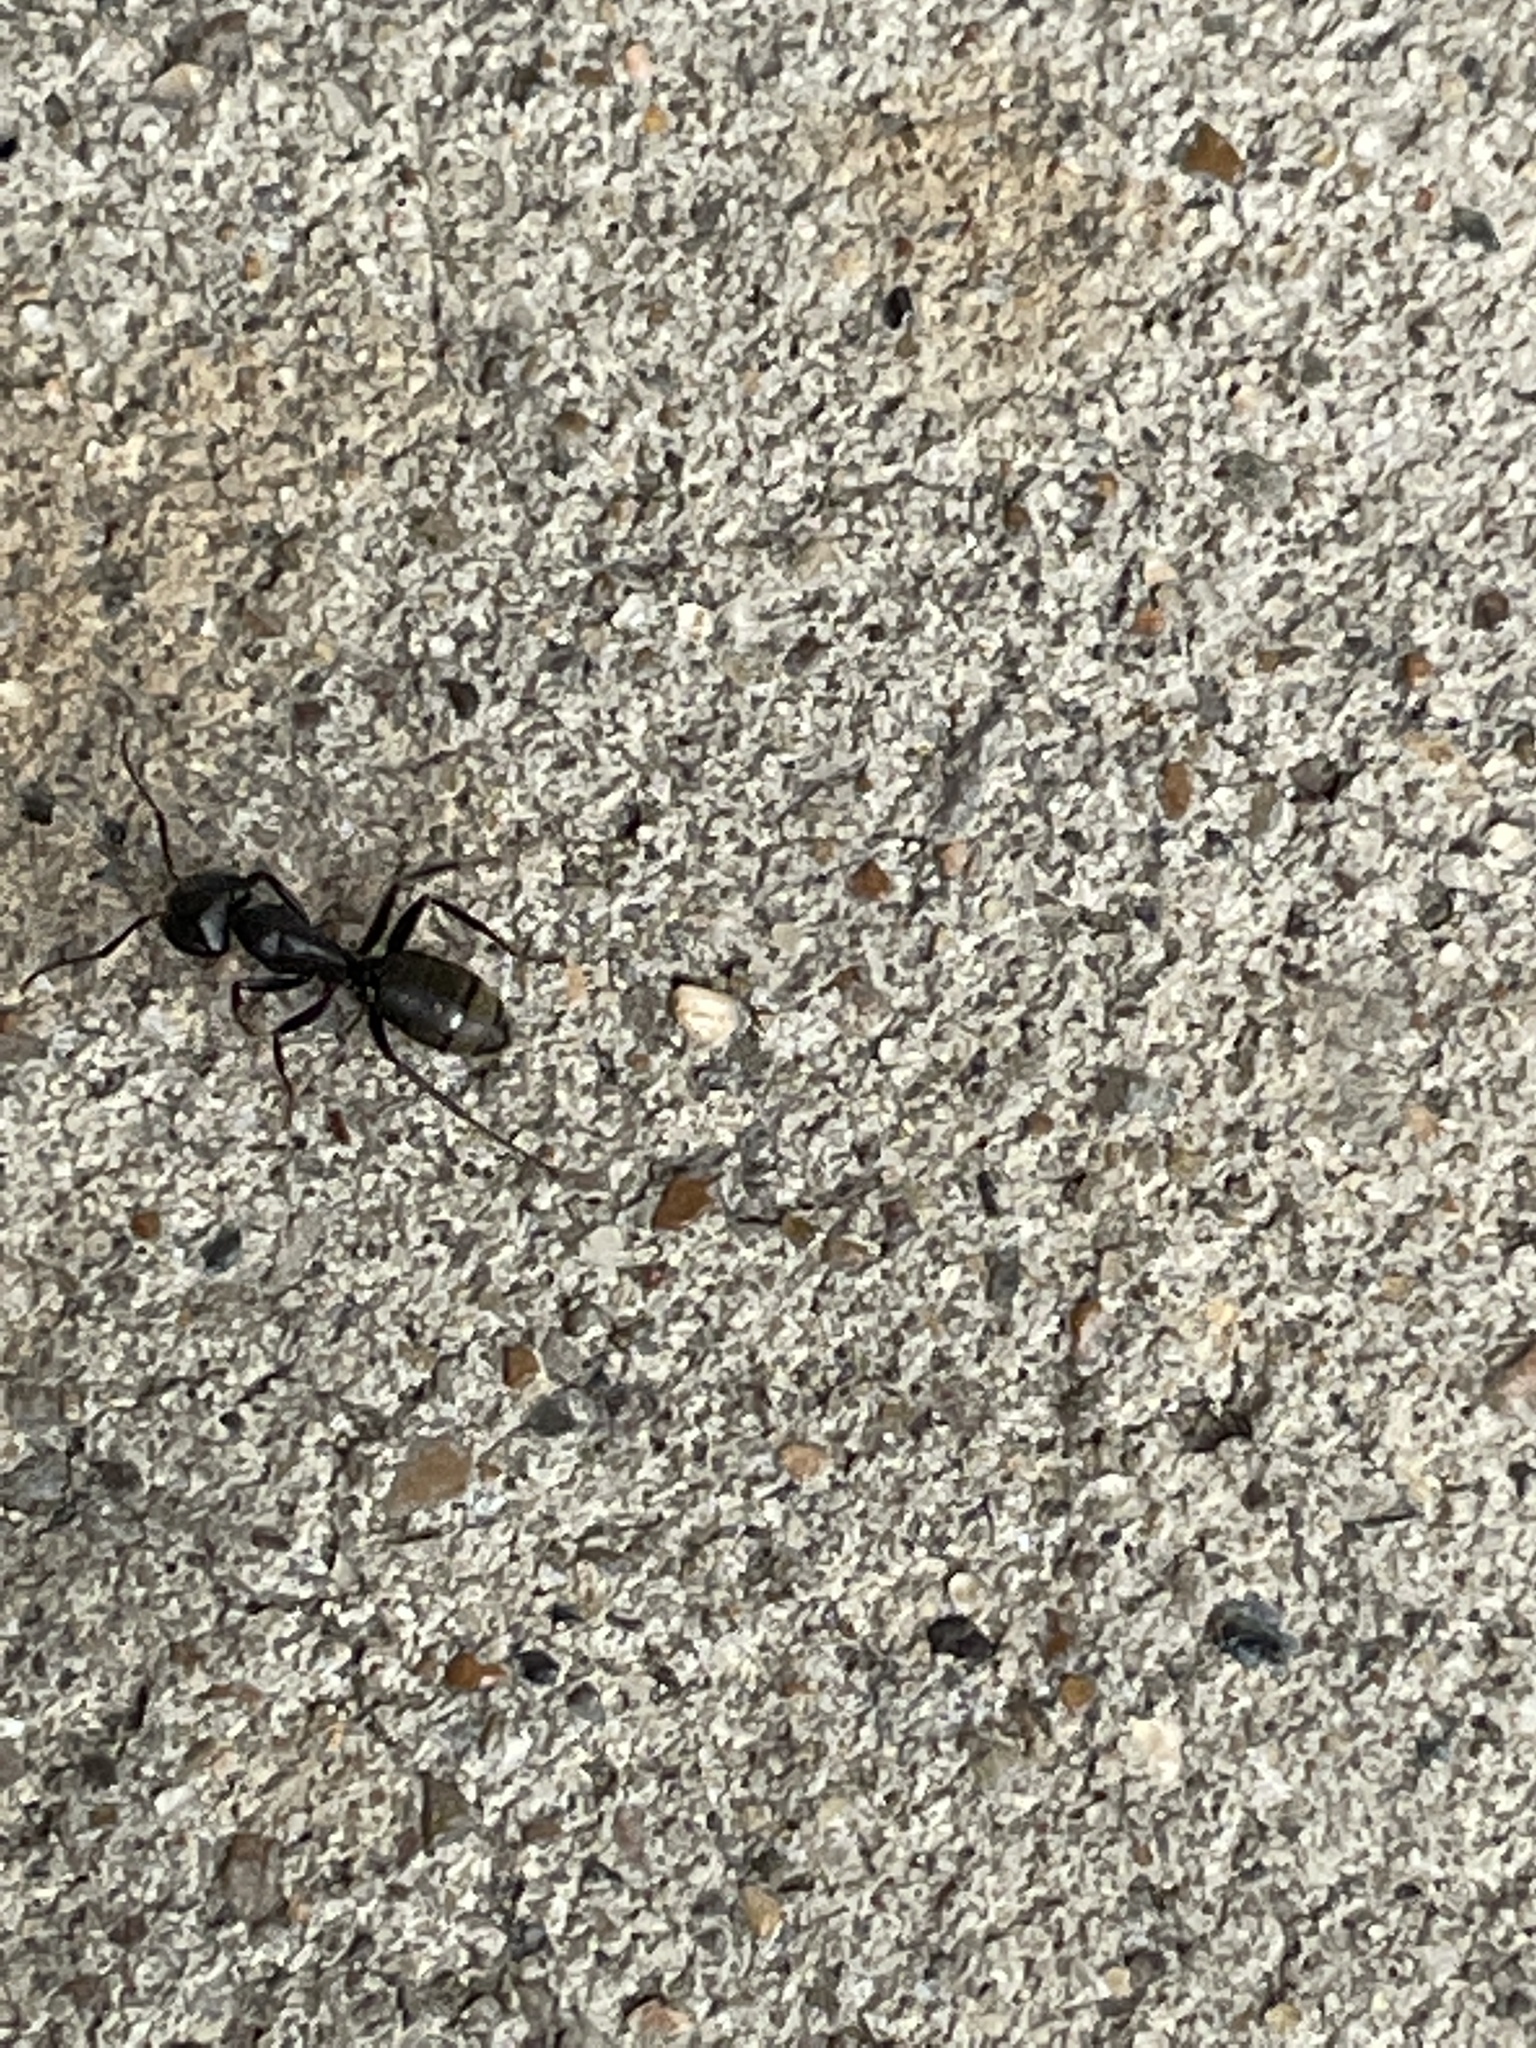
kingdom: Animalia
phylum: Arthropoda
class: Insecta
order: Hymenoptera
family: Formicidae
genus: Camponotus
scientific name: Camponotus pennsylvanicus
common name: Black carpenter ant
